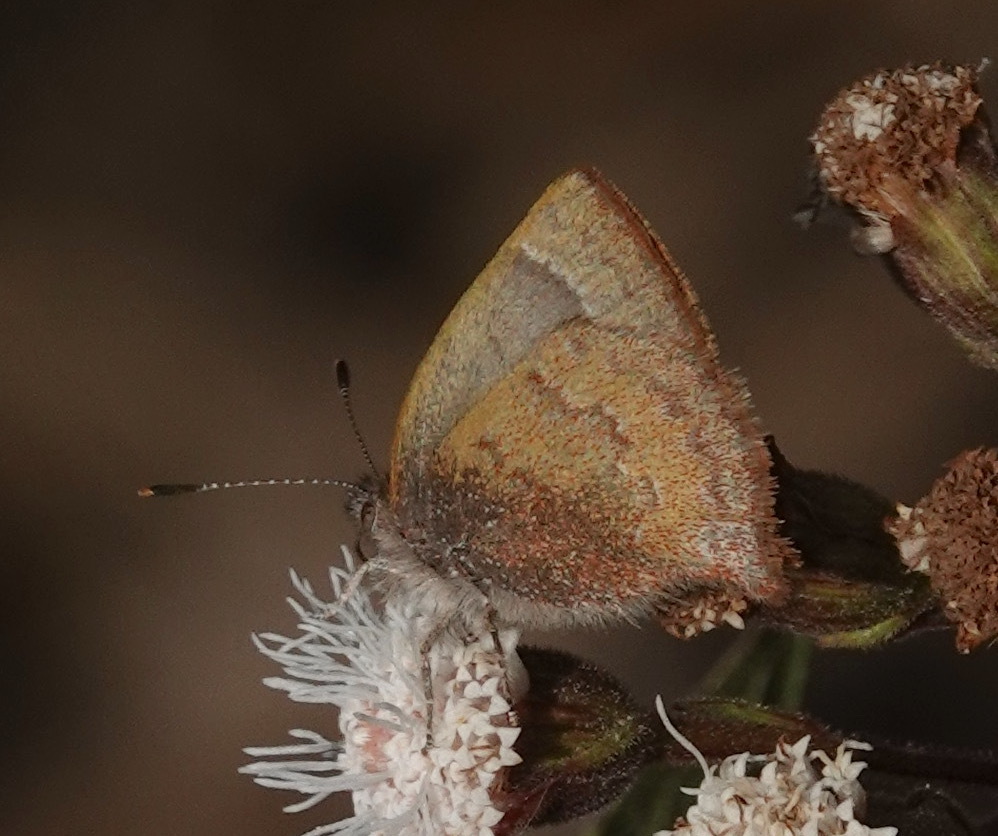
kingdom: Animalia
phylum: Arthropoda
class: Insecta
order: Lepidoptera
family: Lycaenidae
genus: Rhamma
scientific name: Rhamma
